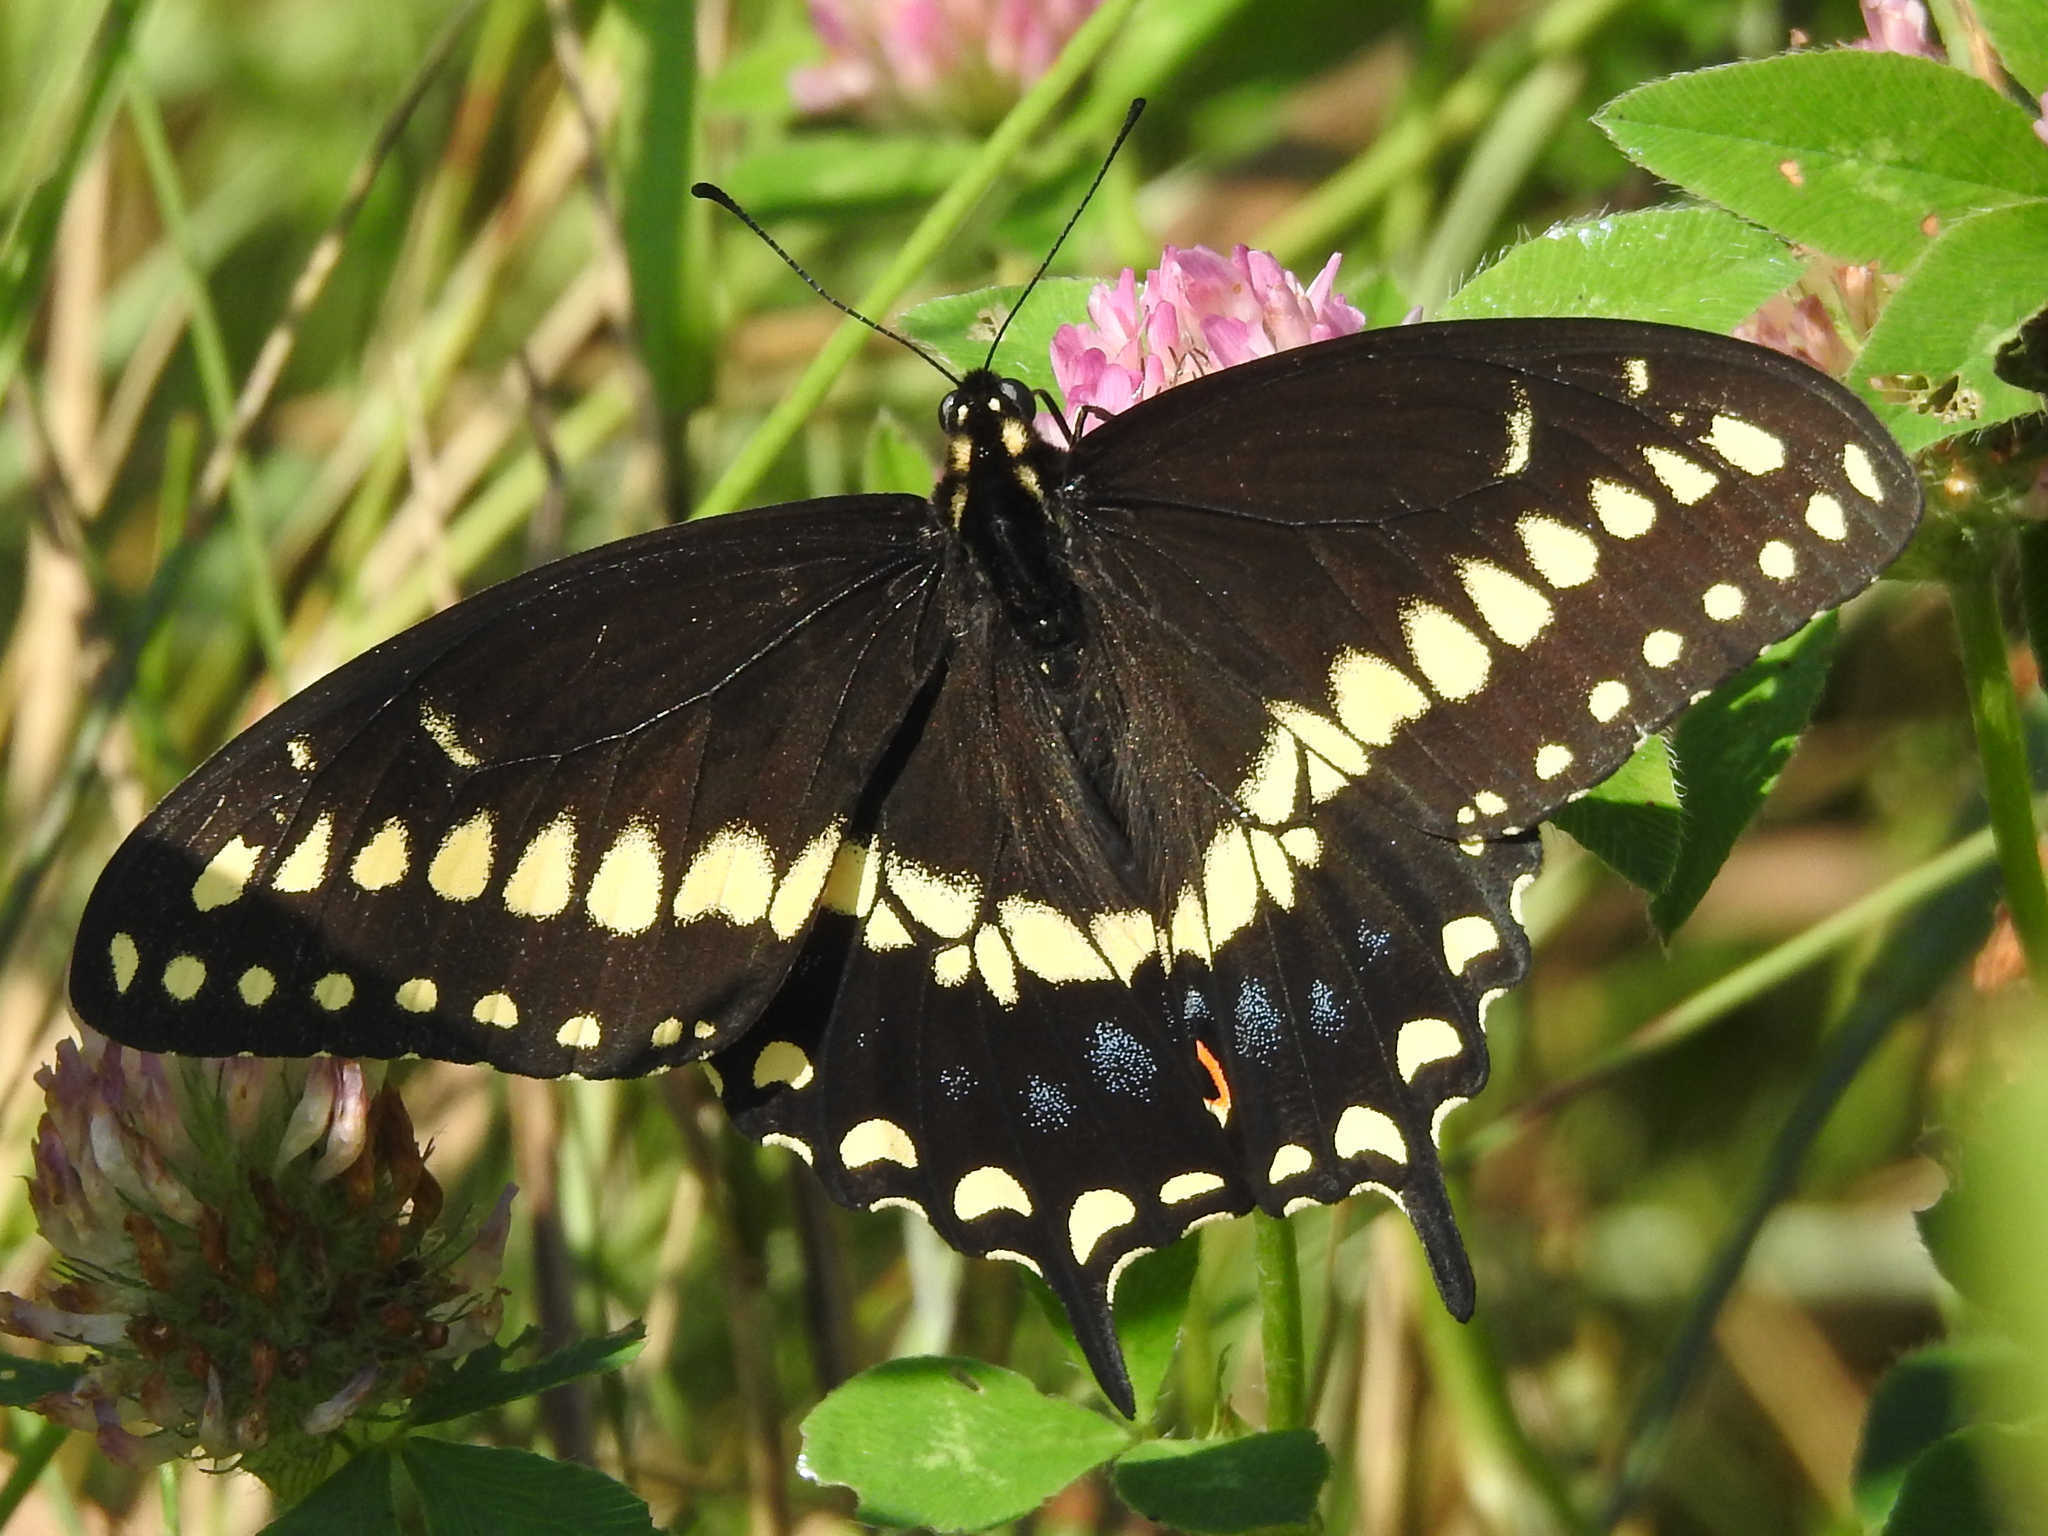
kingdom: Animalia
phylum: Arthropoda
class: Insecta
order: Lepidoptera
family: Papilionidae
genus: Papilio
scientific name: Papilio polyxenes
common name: Black swallowtail
